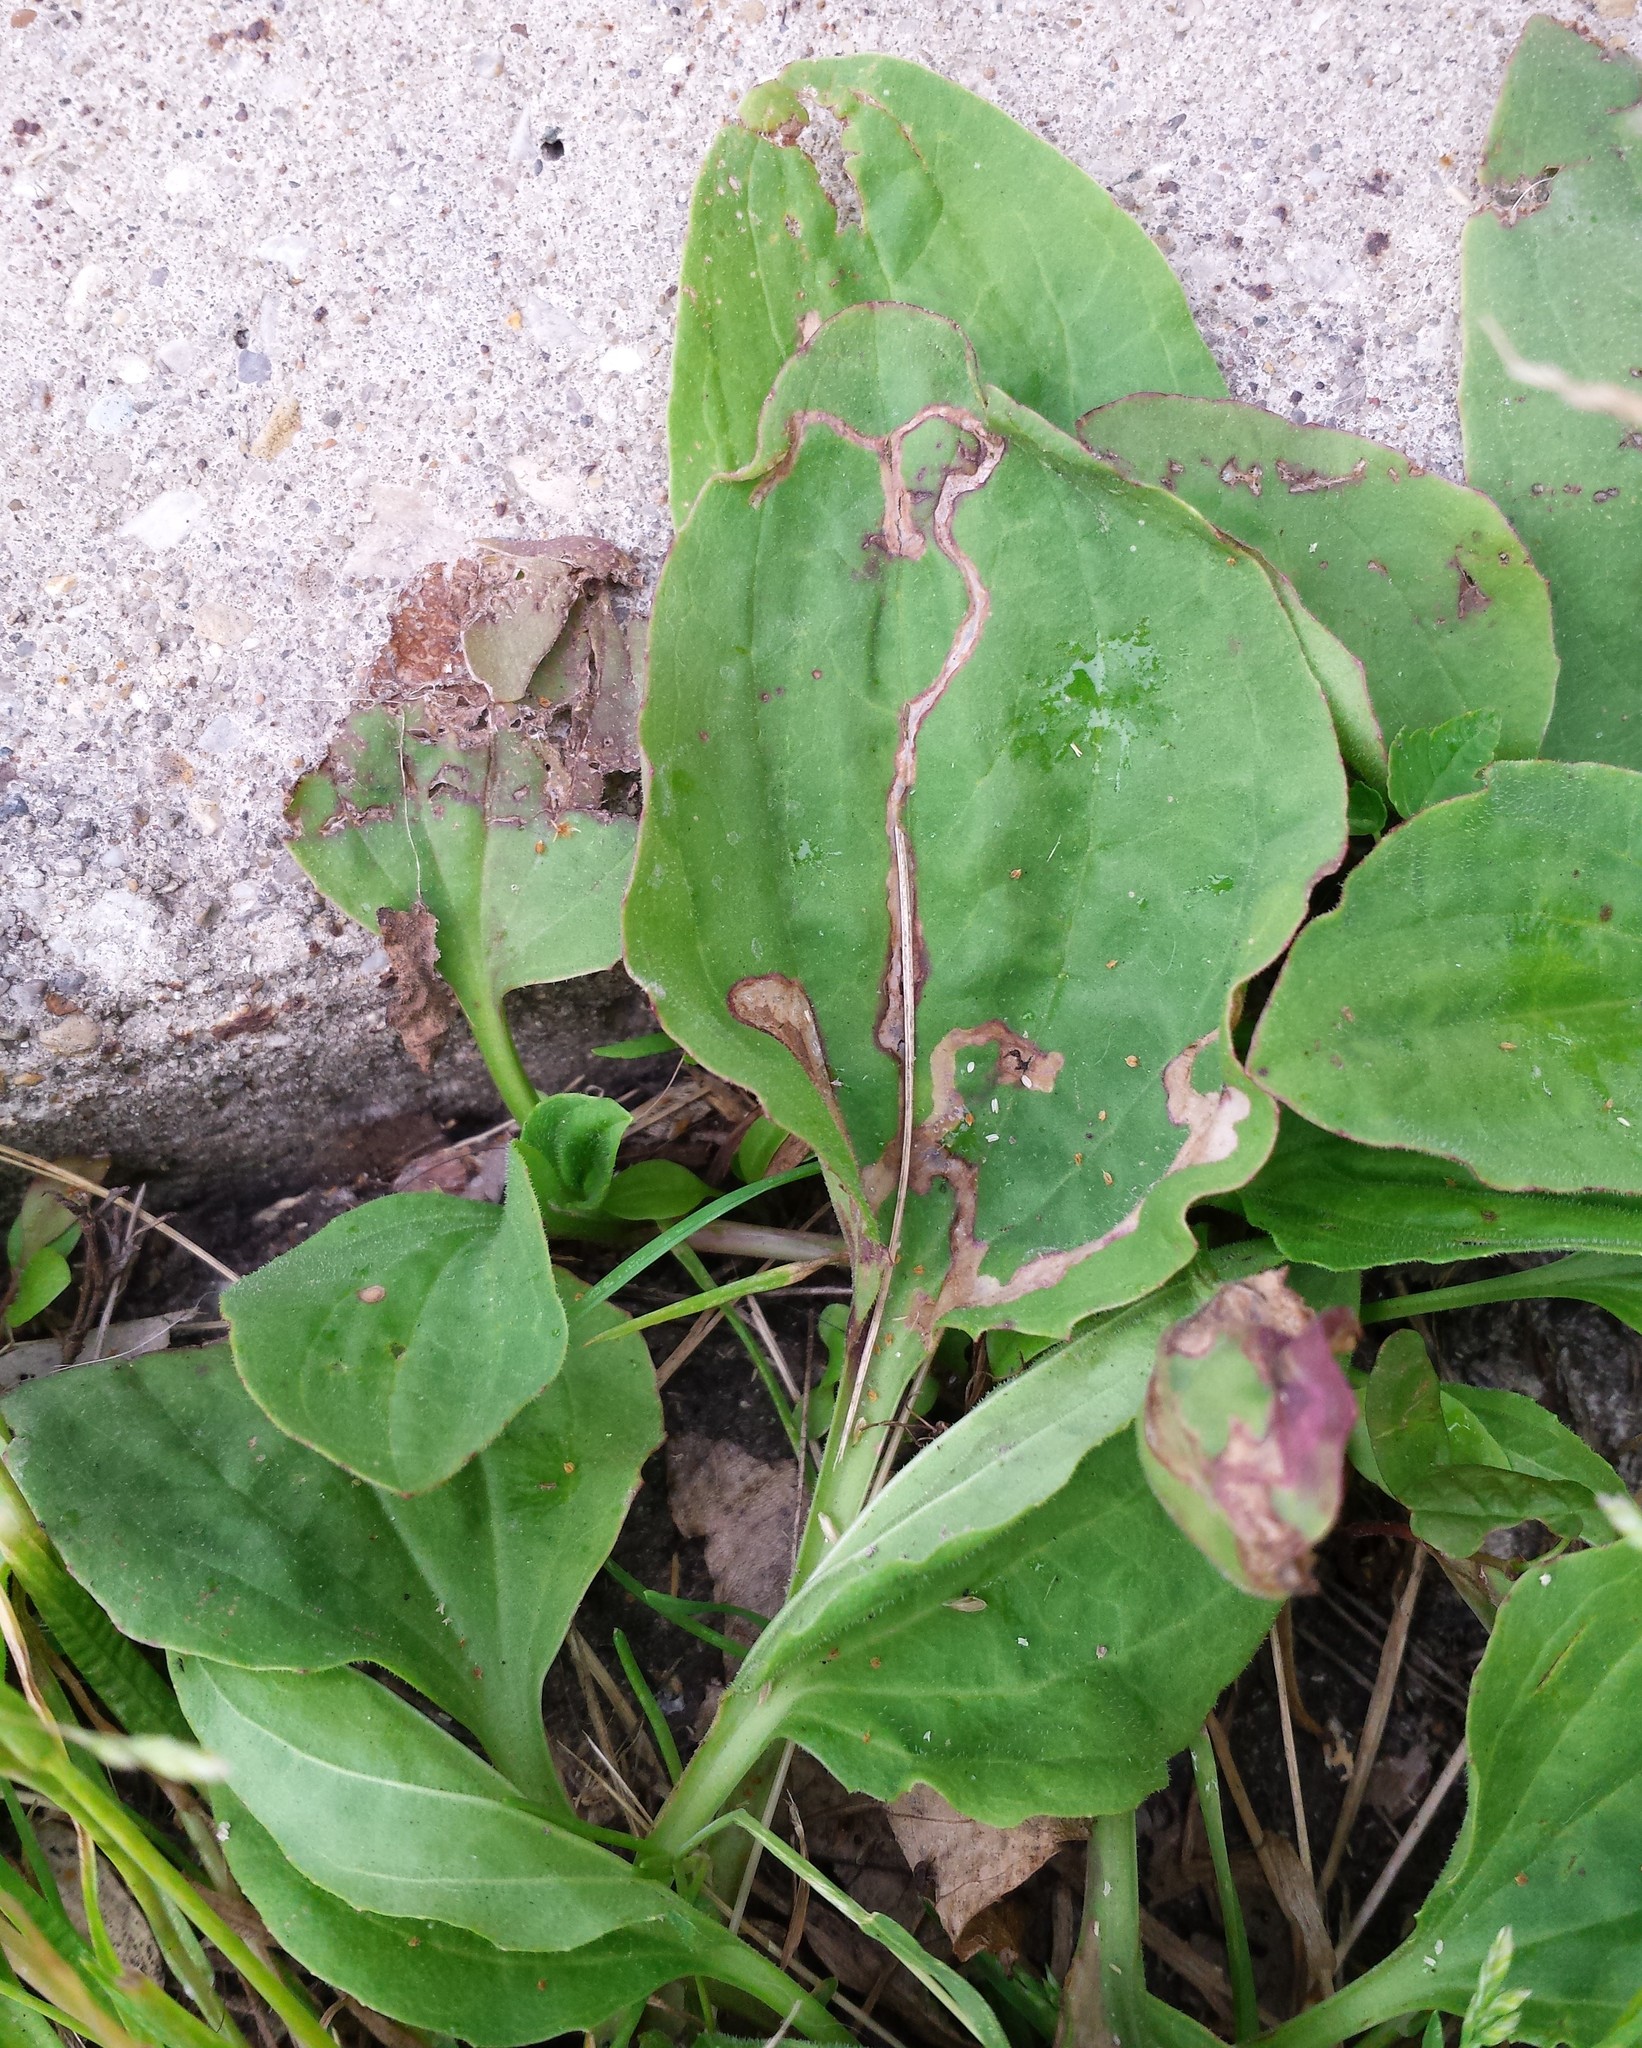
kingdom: Plantae
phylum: Tracheophyta
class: Magnoliopsida
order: Lamiales
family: Plantaginaceae
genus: Plantago
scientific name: Plantago major
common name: Common plantain
